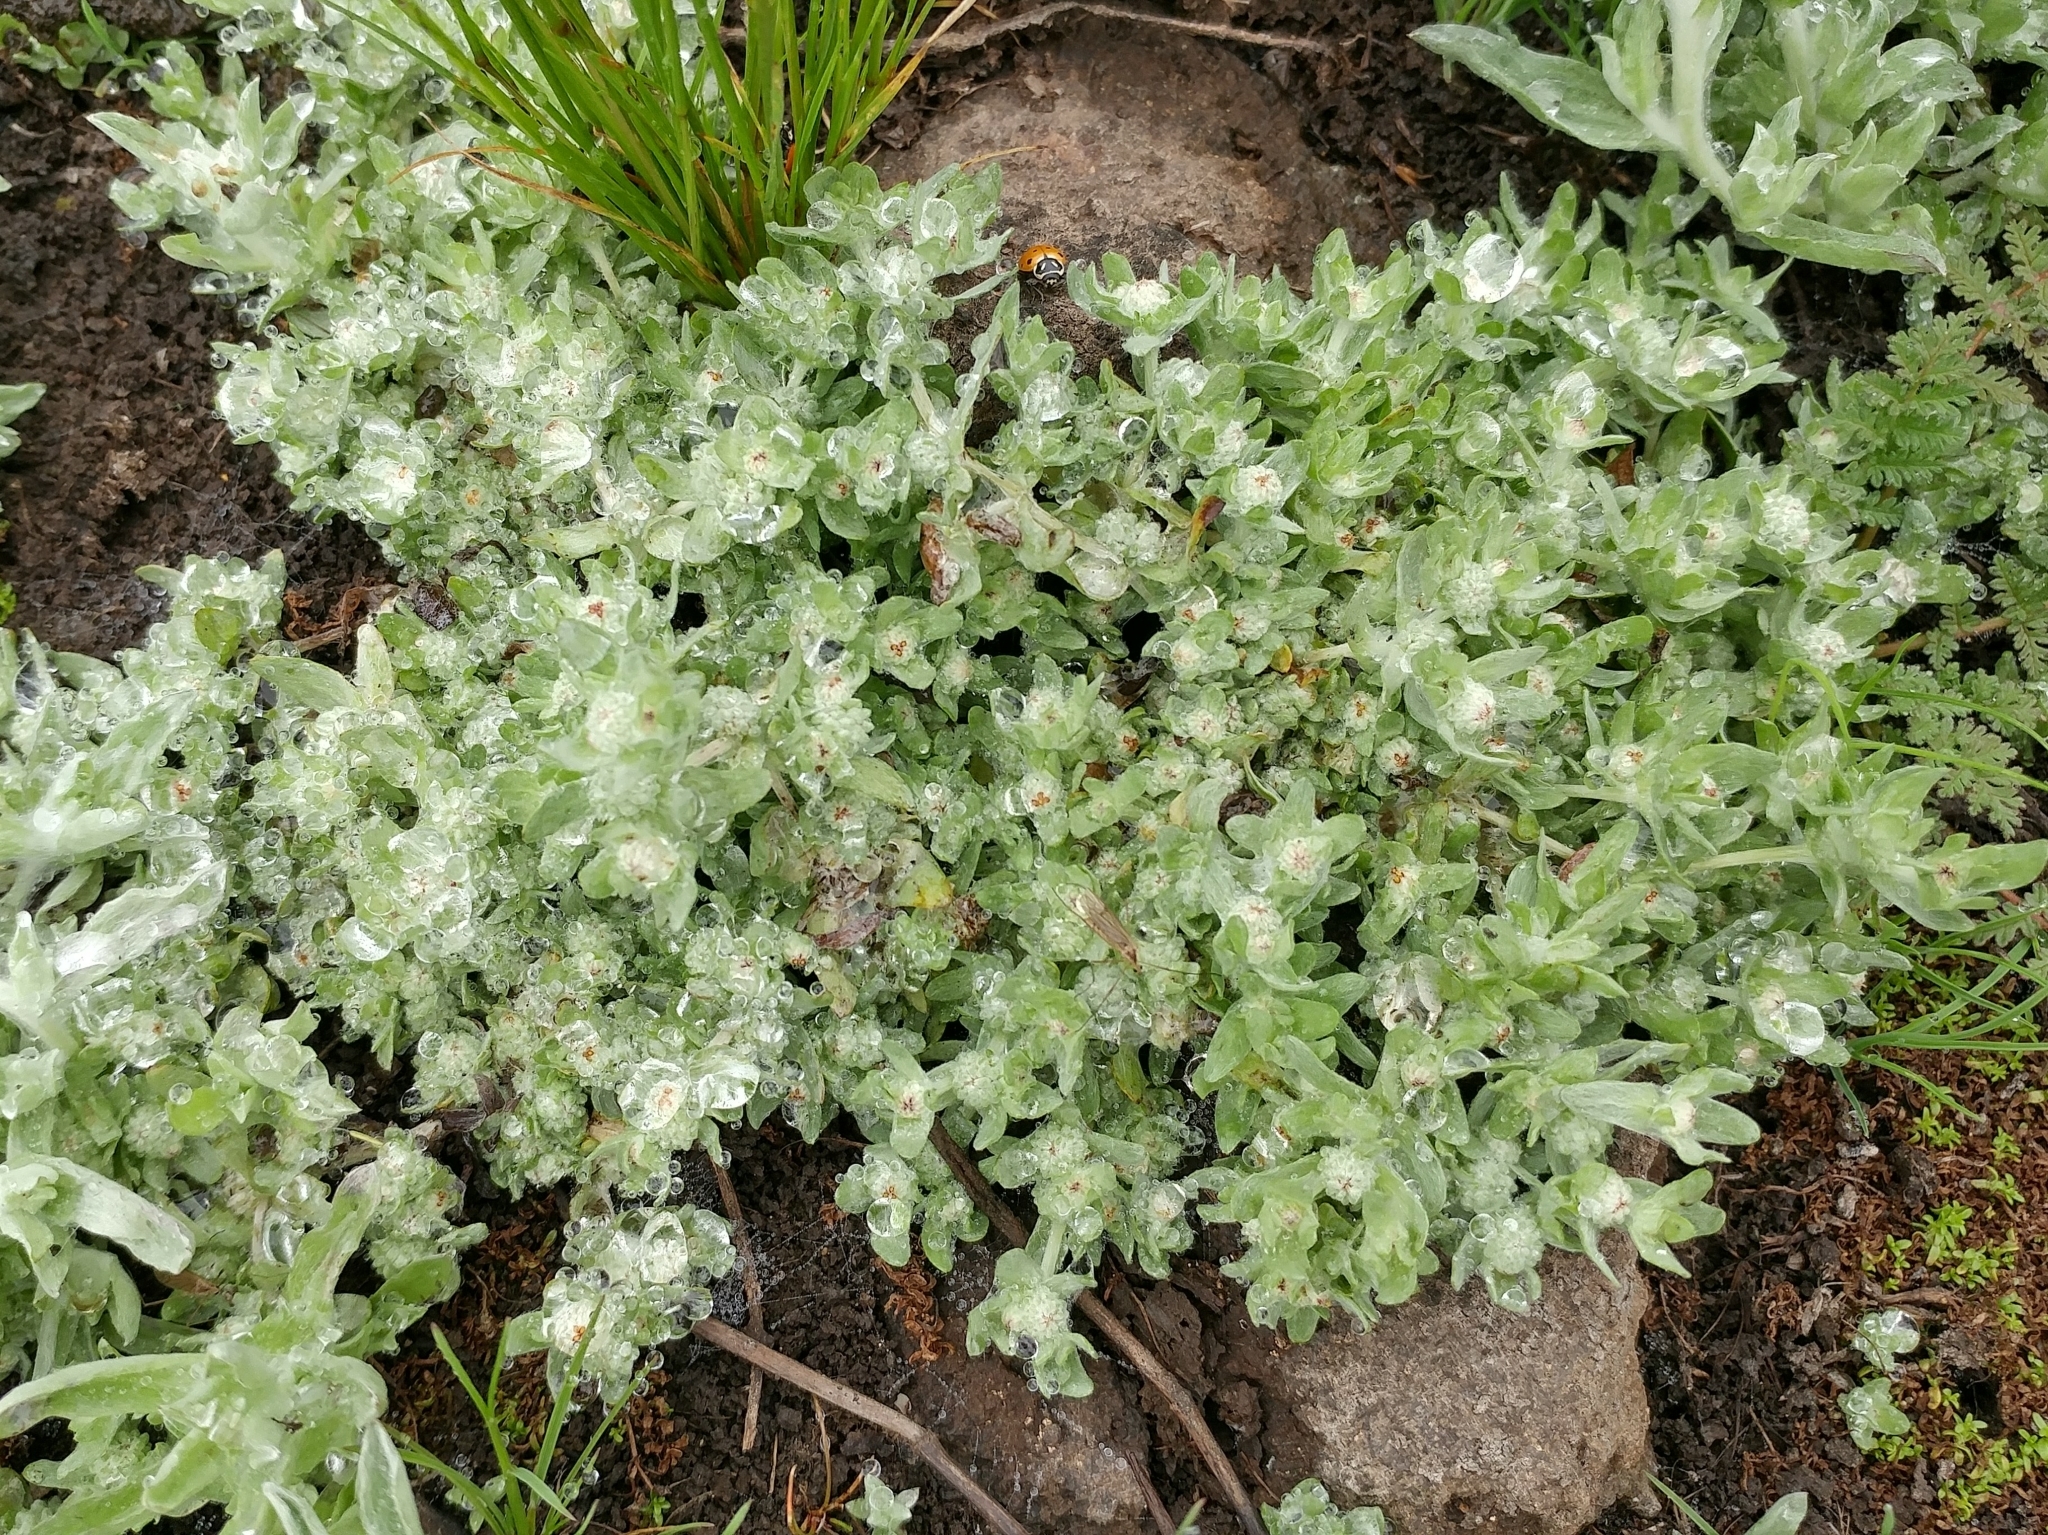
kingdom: Plantae
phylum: Tracheophyta
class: Magnoliopsida
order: Asterales
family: Asteraceae
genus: Psilocarphus
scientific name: Psilocarphus tenellus
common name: Slender woolly-marbles
